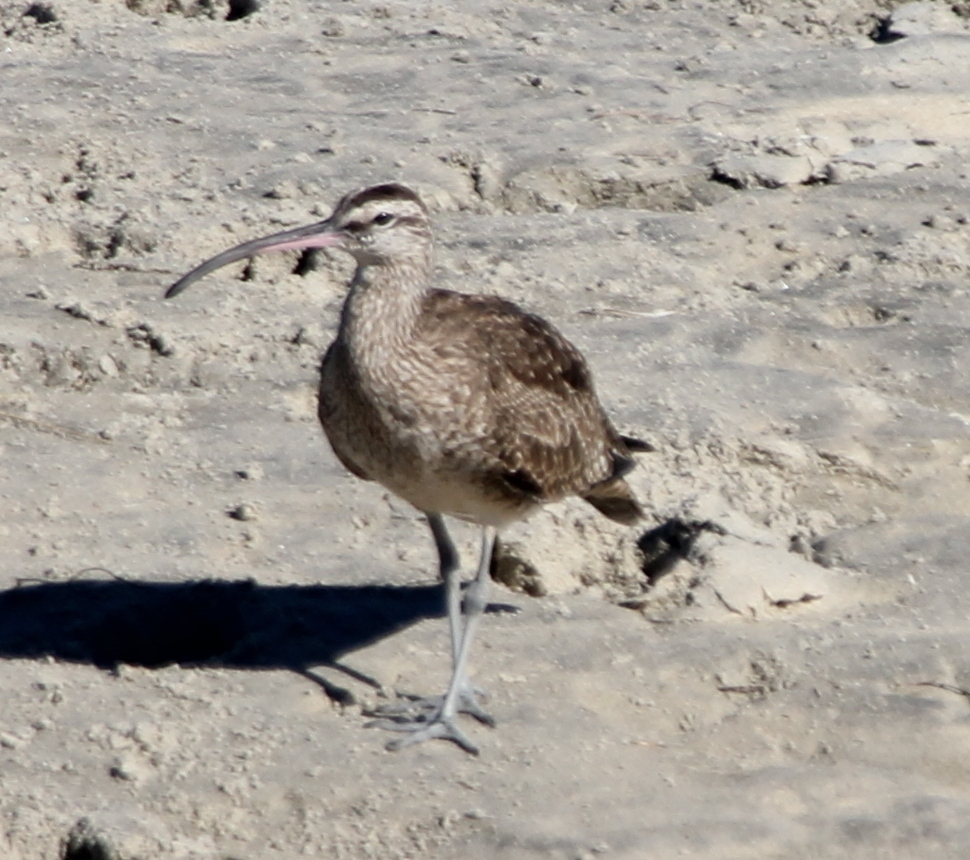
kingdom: Animalia
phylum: Chordata
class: Aves
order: Charadriiformes
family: Scolopacidae
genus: Numenius
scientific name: Numenius phaeopus
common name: Whimbrel
